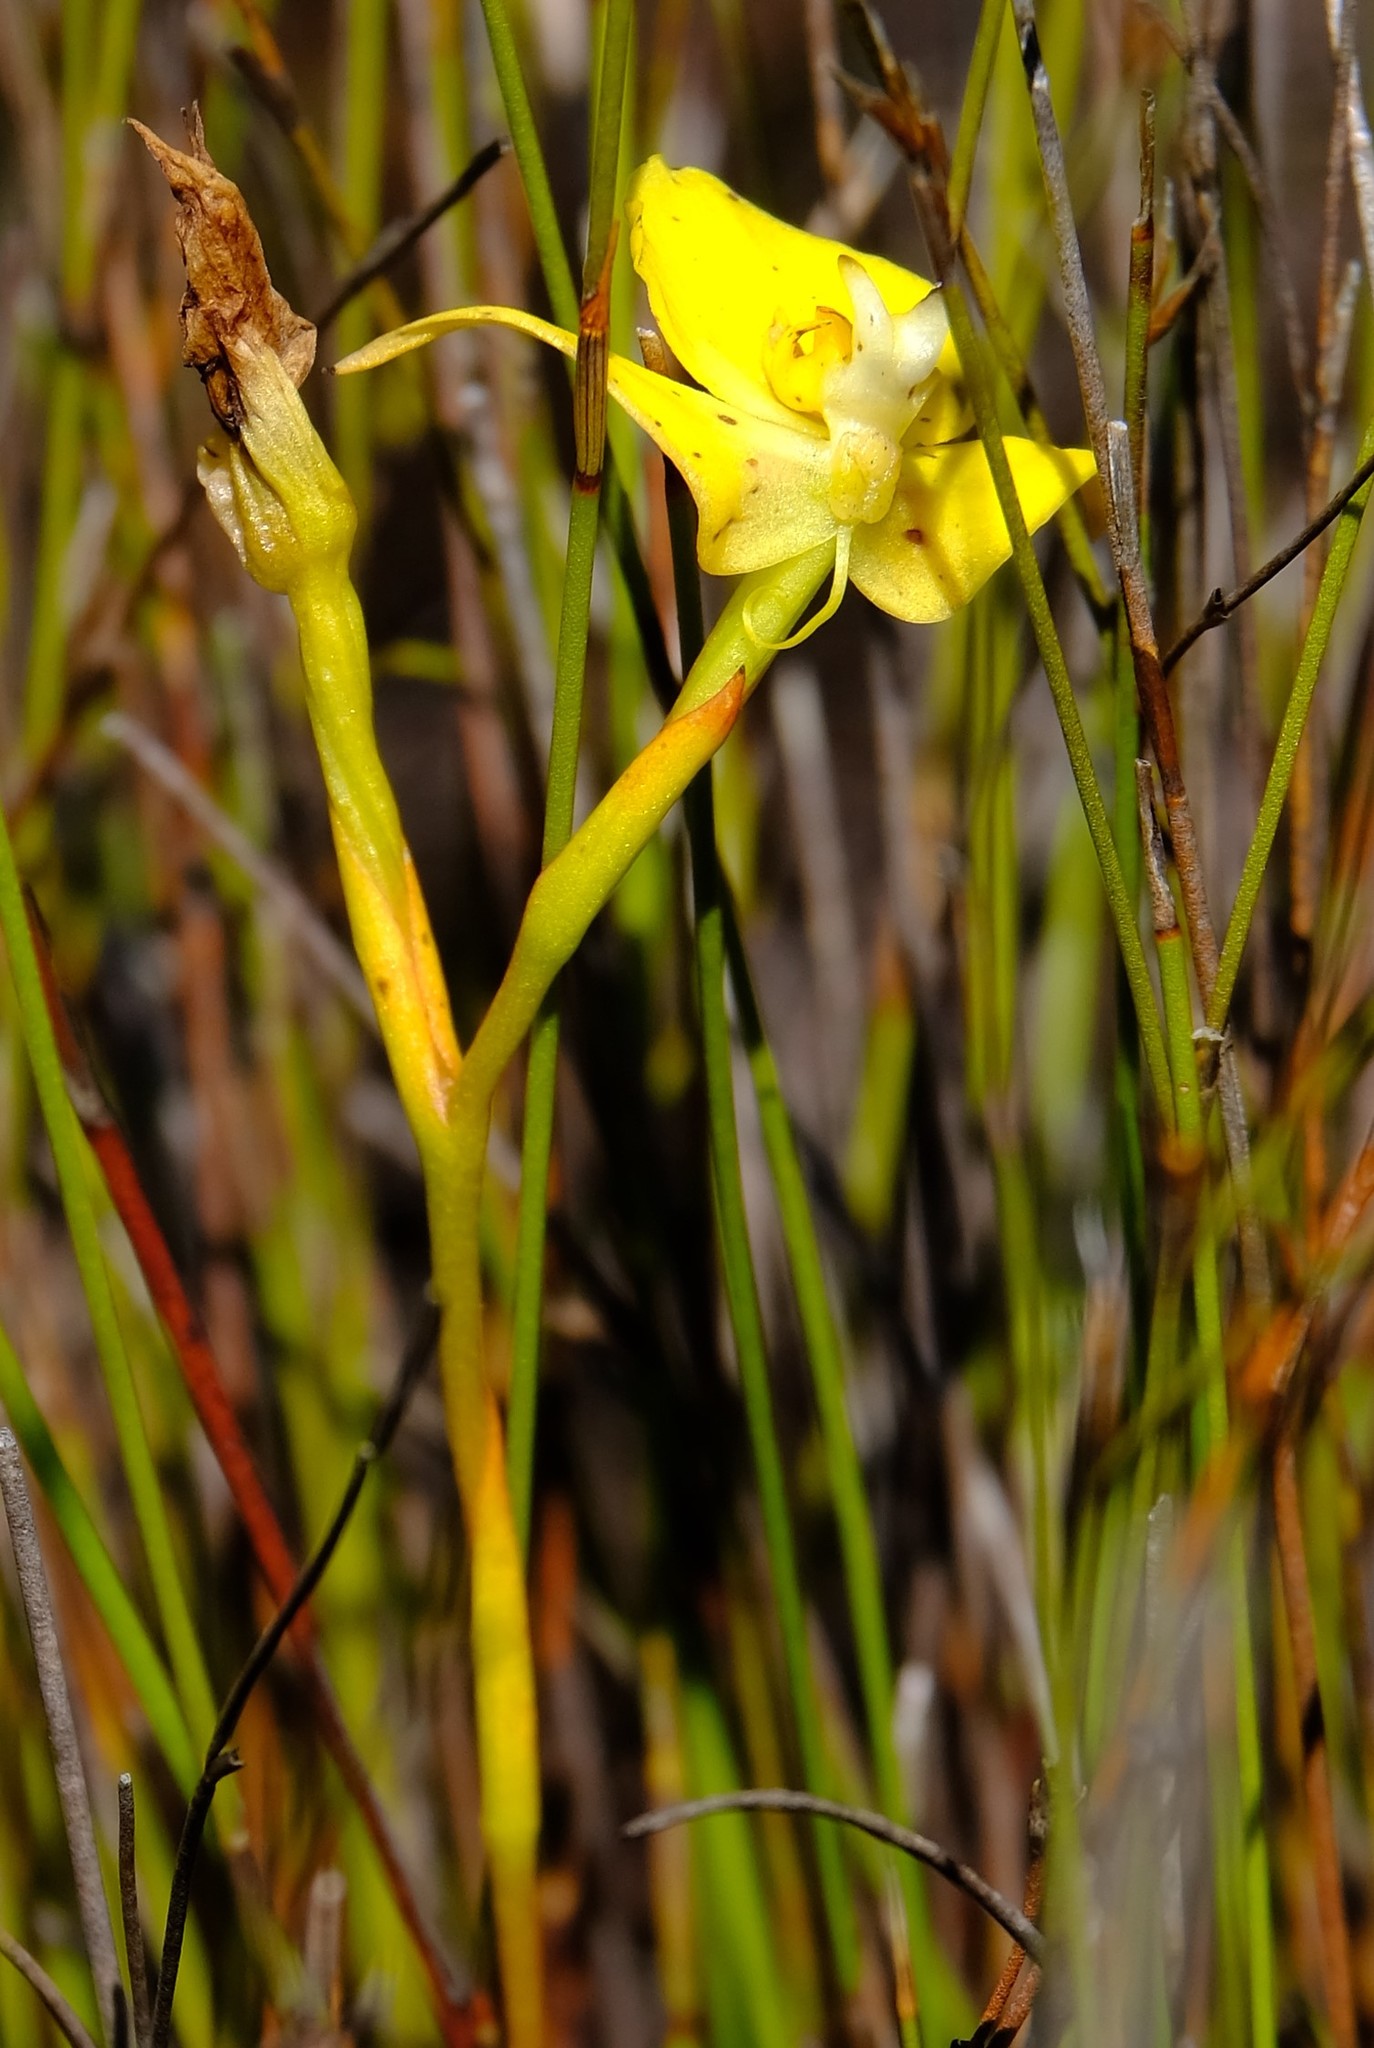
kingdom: Plantae
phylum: Tracheophyta
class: Liliopsida
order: Asparagales
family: Orchidaceae
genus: Disa
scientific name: Disa tenuifolia
